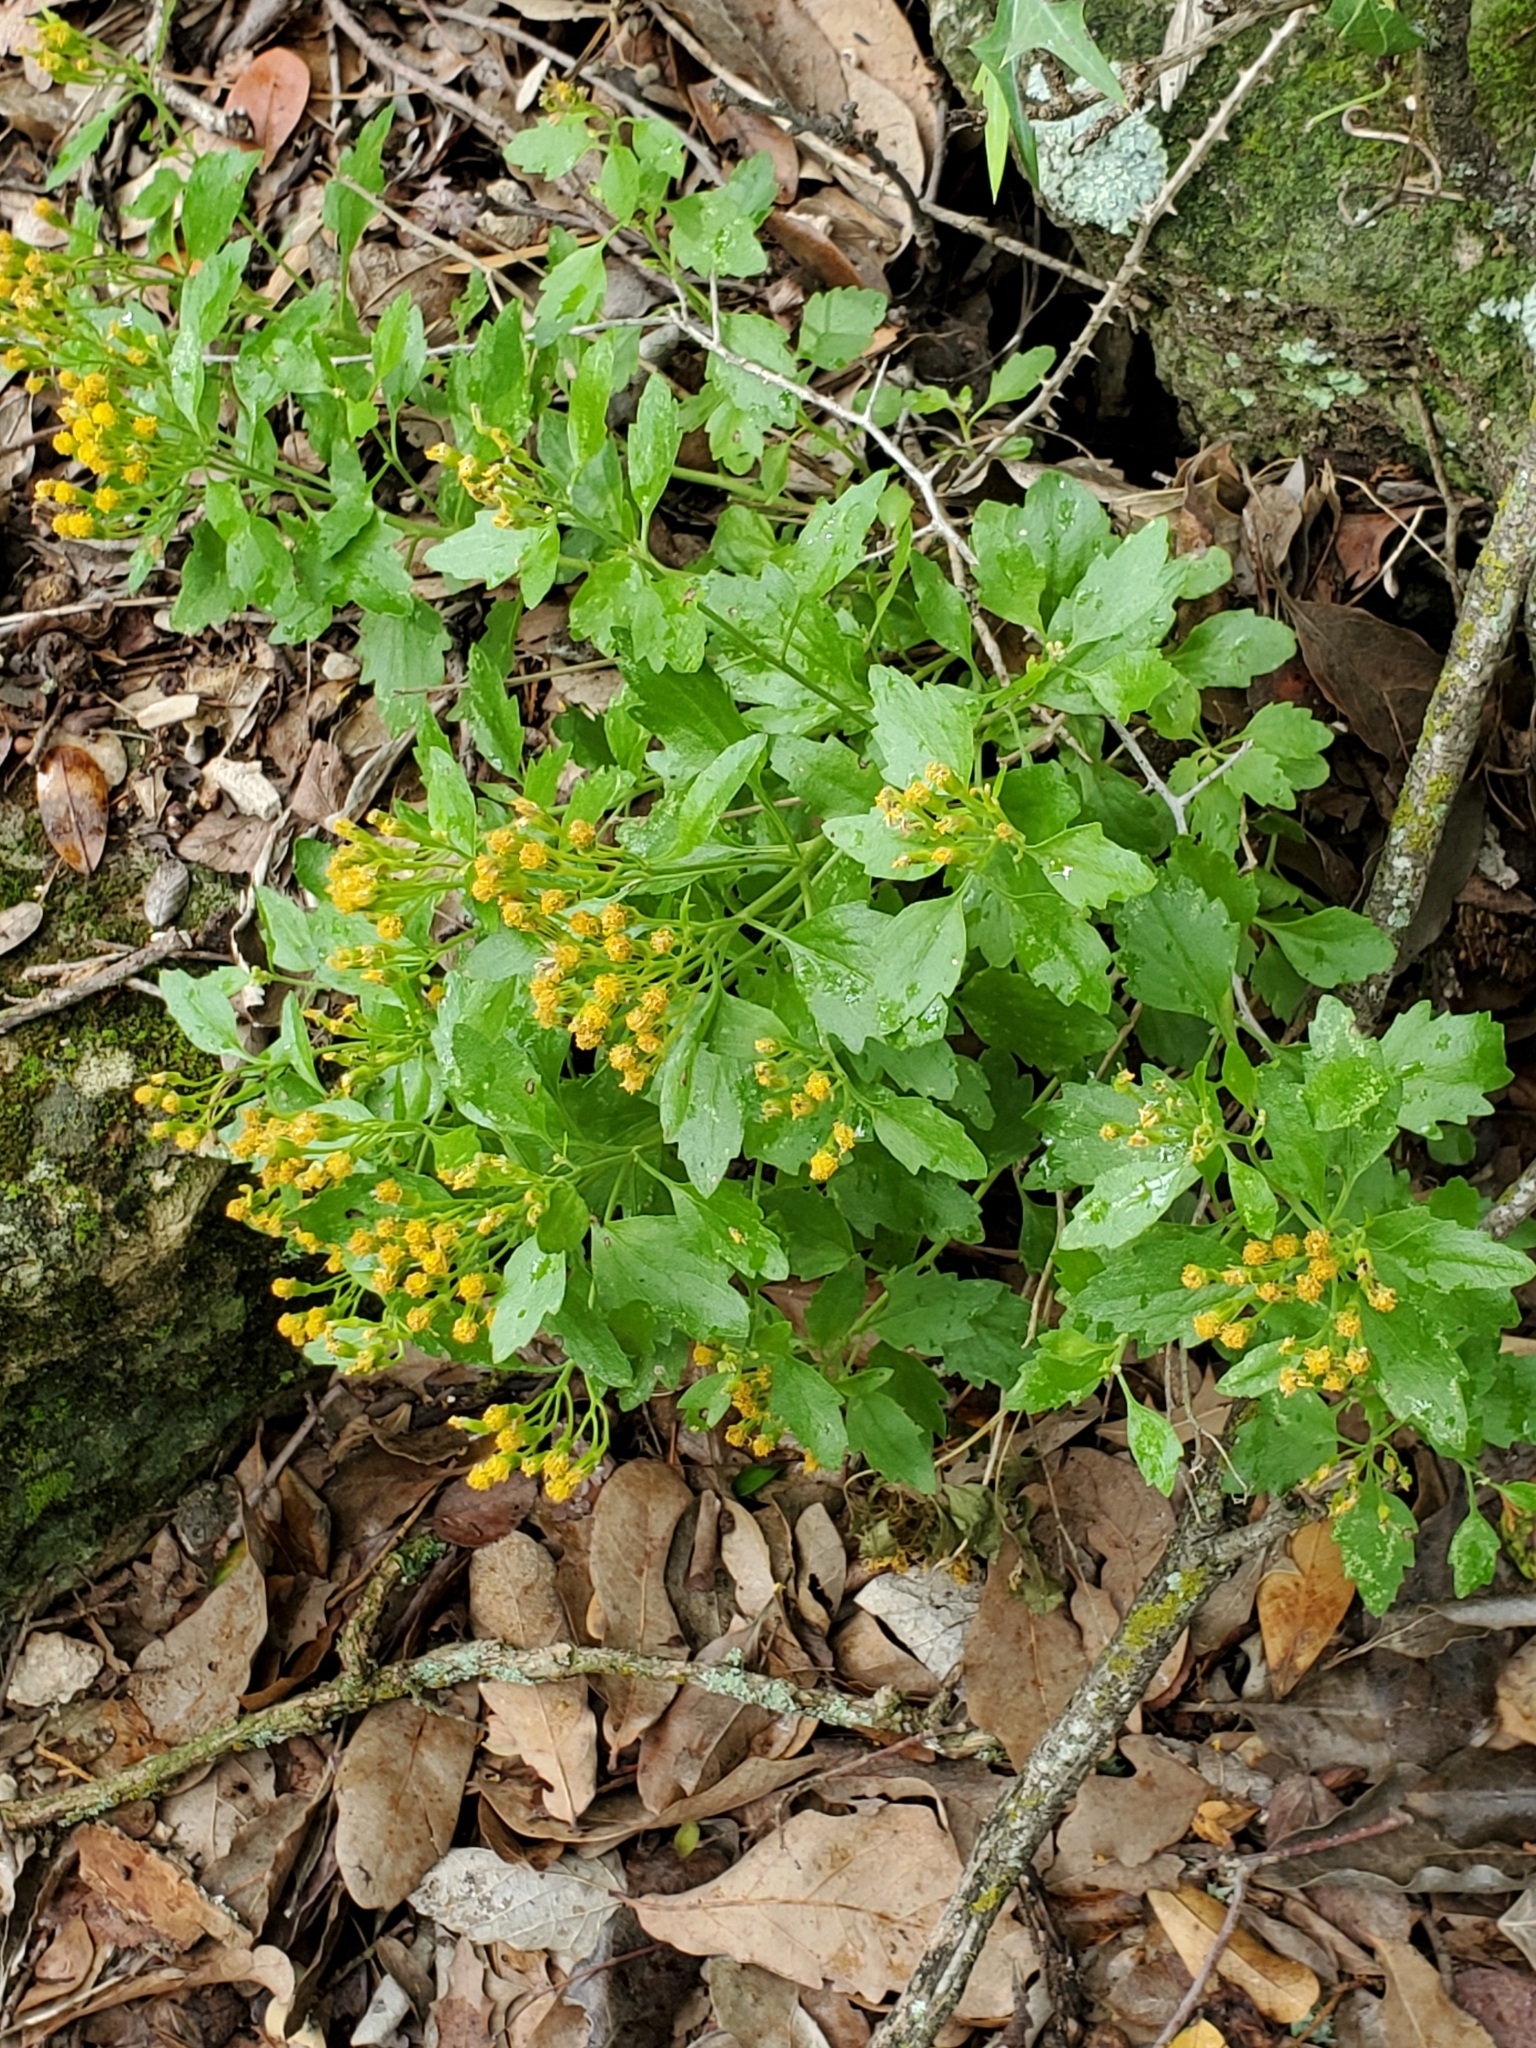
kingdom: Plantae
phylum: Tracheophyta
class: Magnoliopsida
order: Asterales
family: Asteraceae
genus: Laphamia
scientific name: Laphamia lindheimeri
